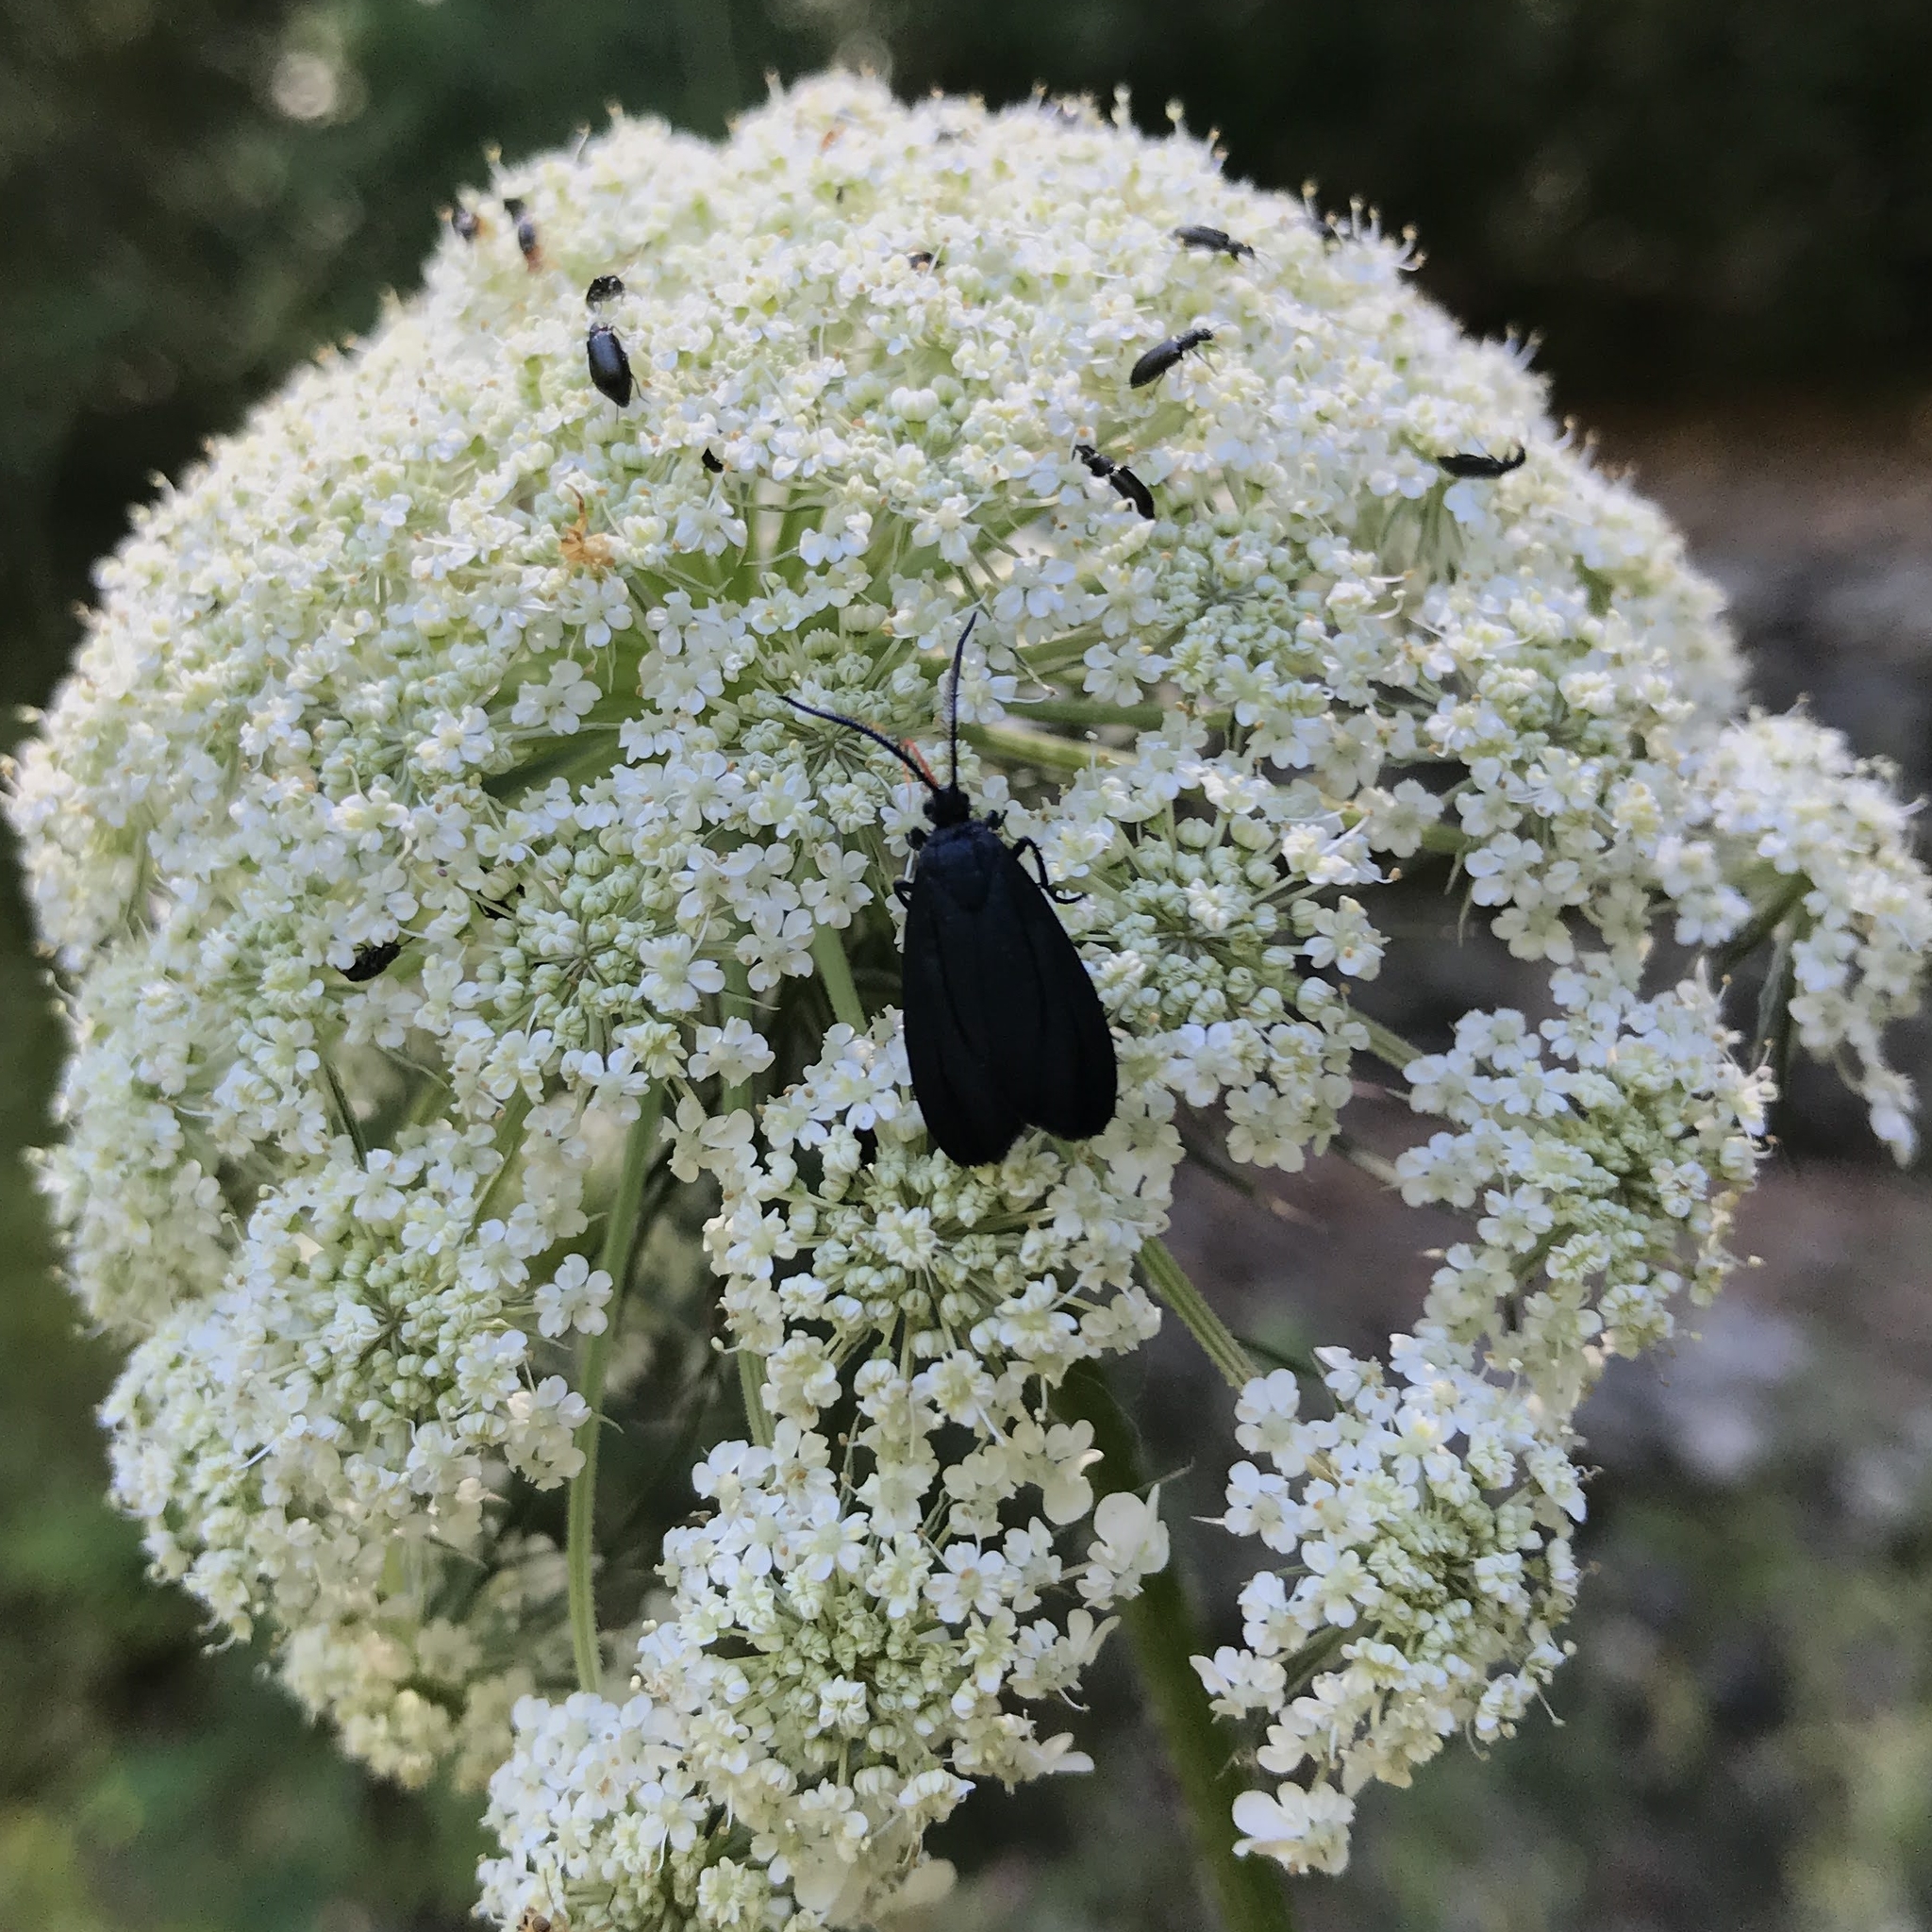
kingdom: Animalia
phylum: Arthropoda
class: Insecta
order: Lepidoptera
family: Zygaenidae
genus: Malamblia
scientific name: Malamblia
